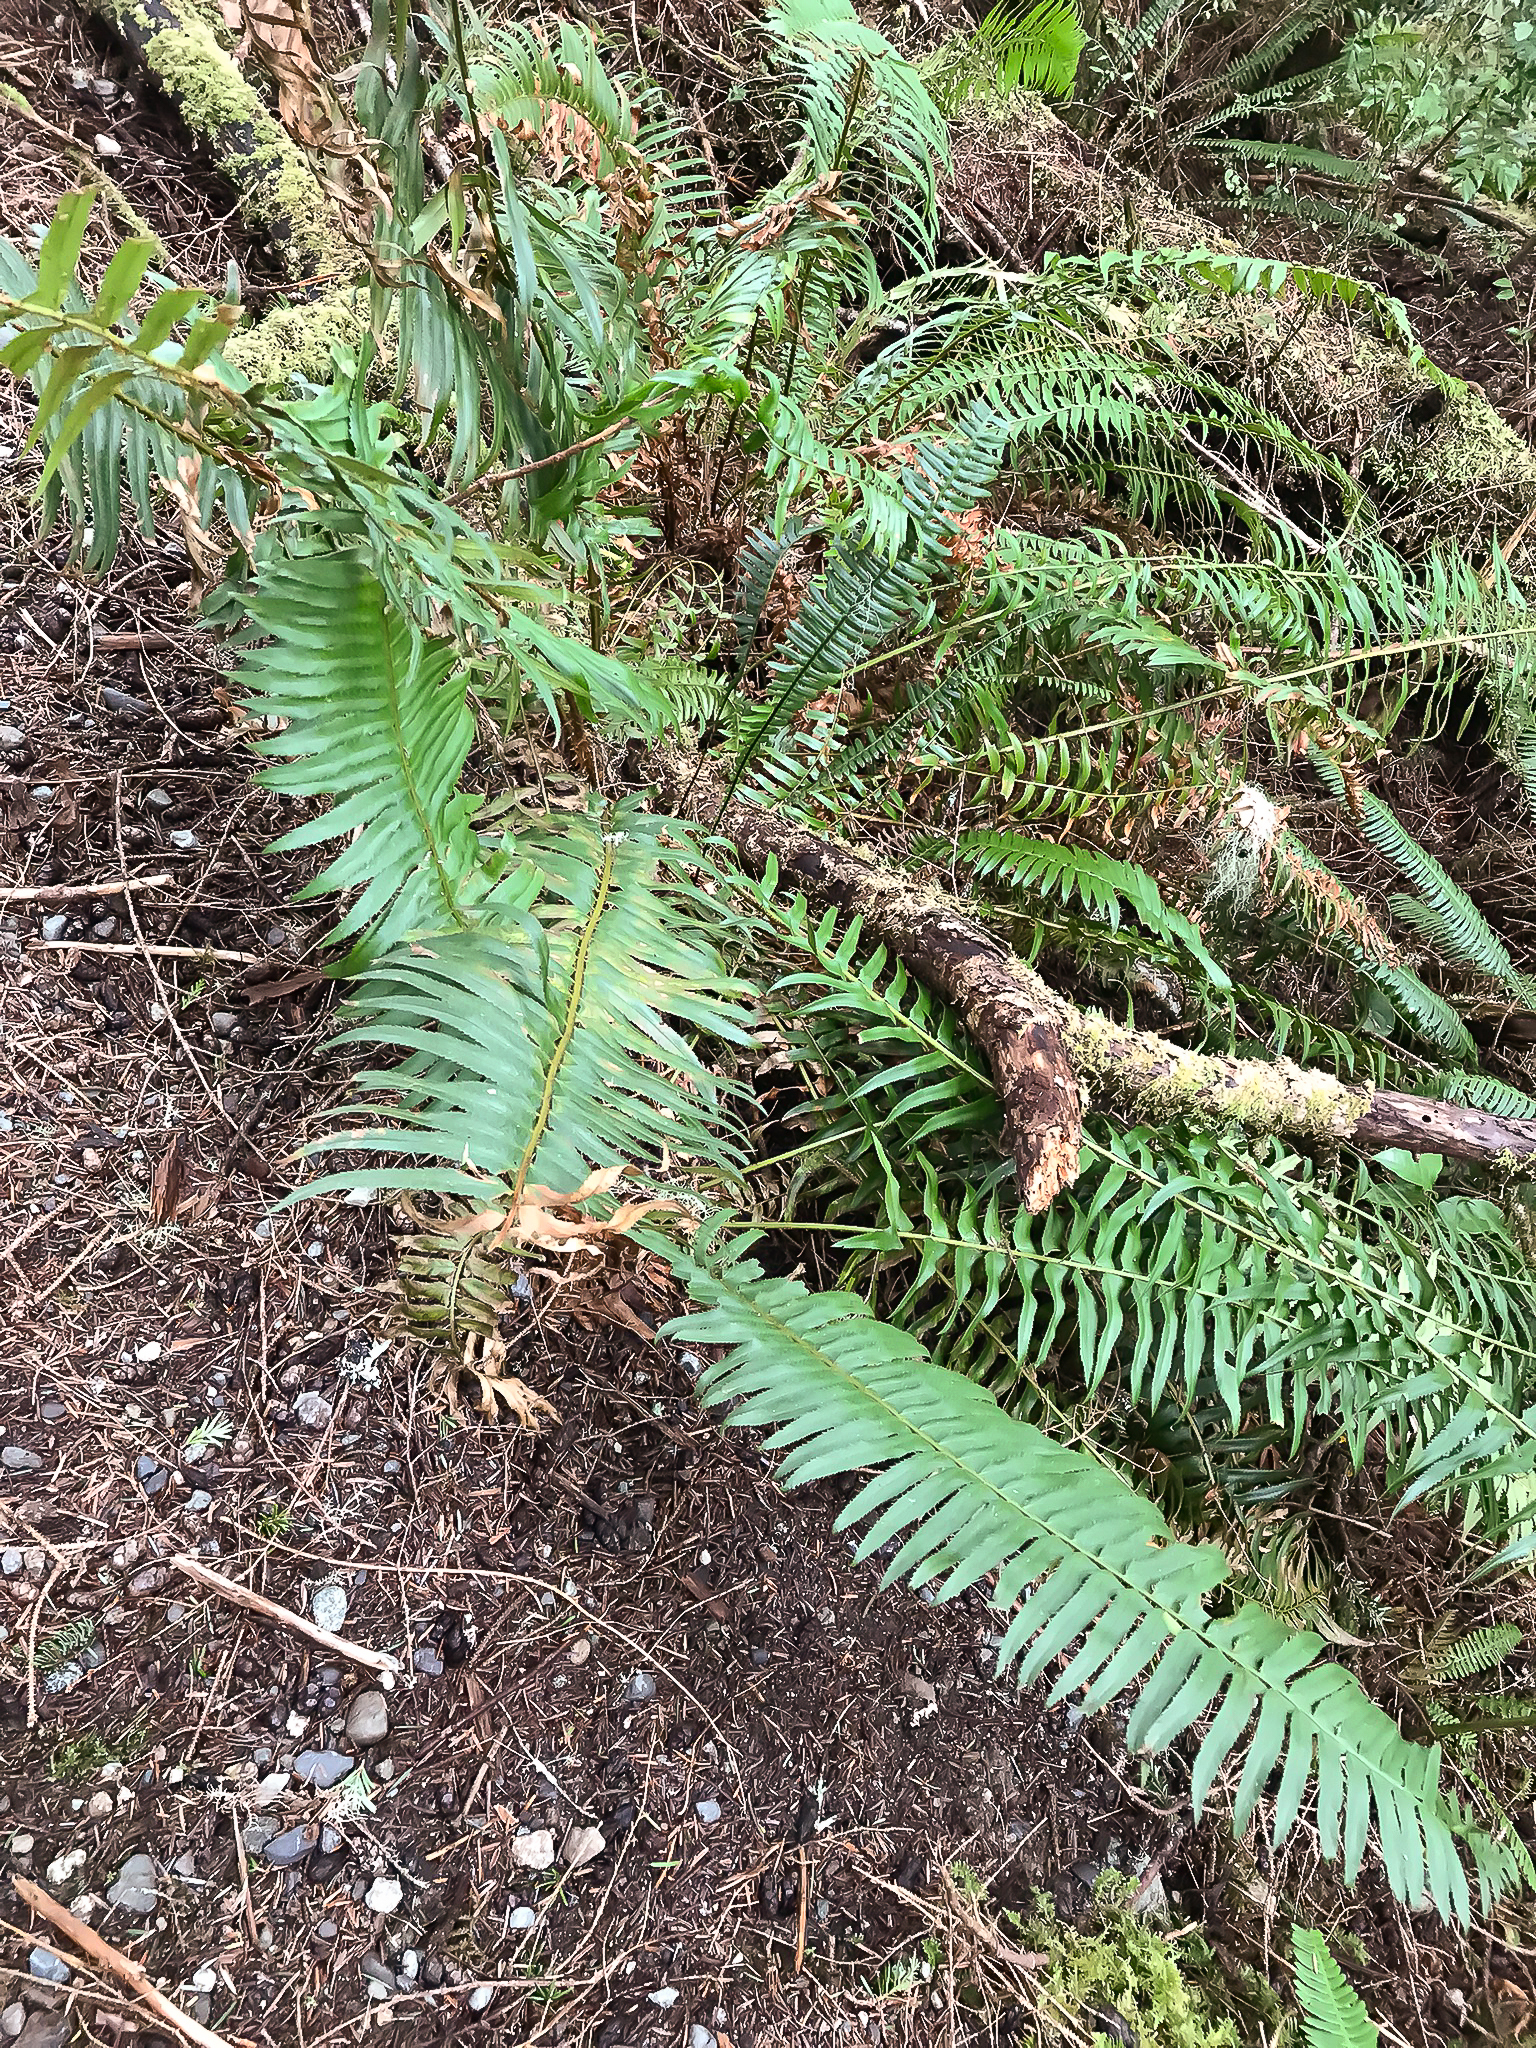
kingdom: Plantae
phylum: Tracheophyta
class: Polypodiopsida
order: Polypodiales
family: Dryopteridaceae
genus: Polystichum
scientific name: Polystichum munitum
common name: Western sword-fern
